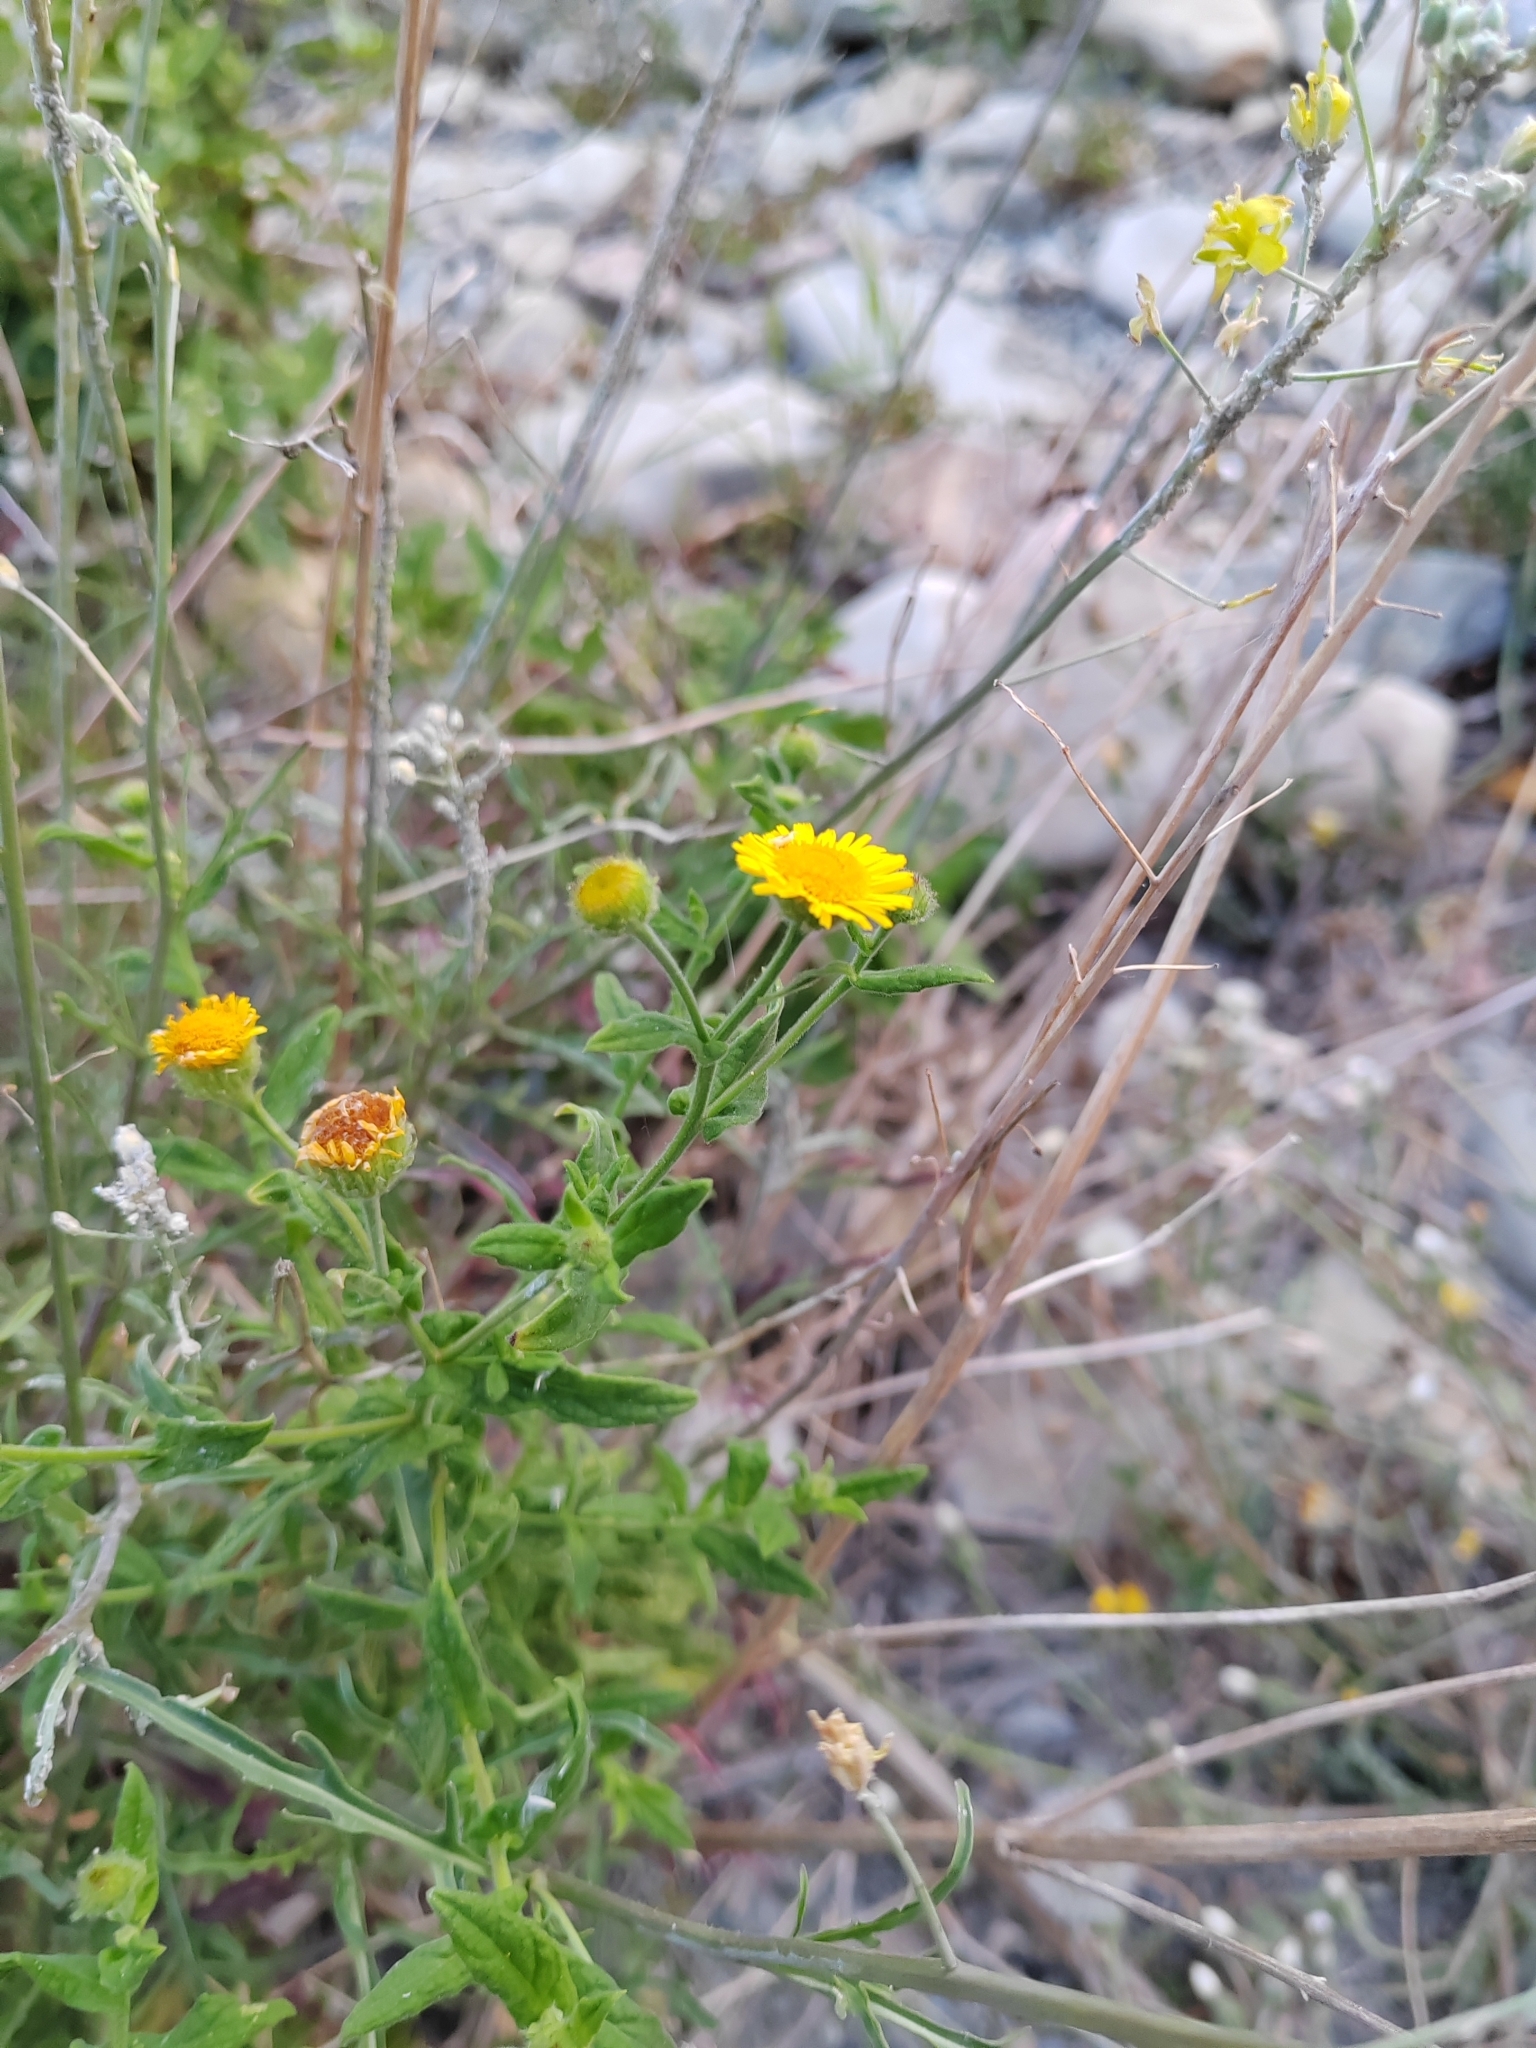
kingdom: Plantae
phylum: Tracheophyta
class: Magnoliopsida
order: Asterales
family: Asteraceae
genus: Pulicaria
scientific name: Pulicaria dysenterica
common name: Common fleabane
